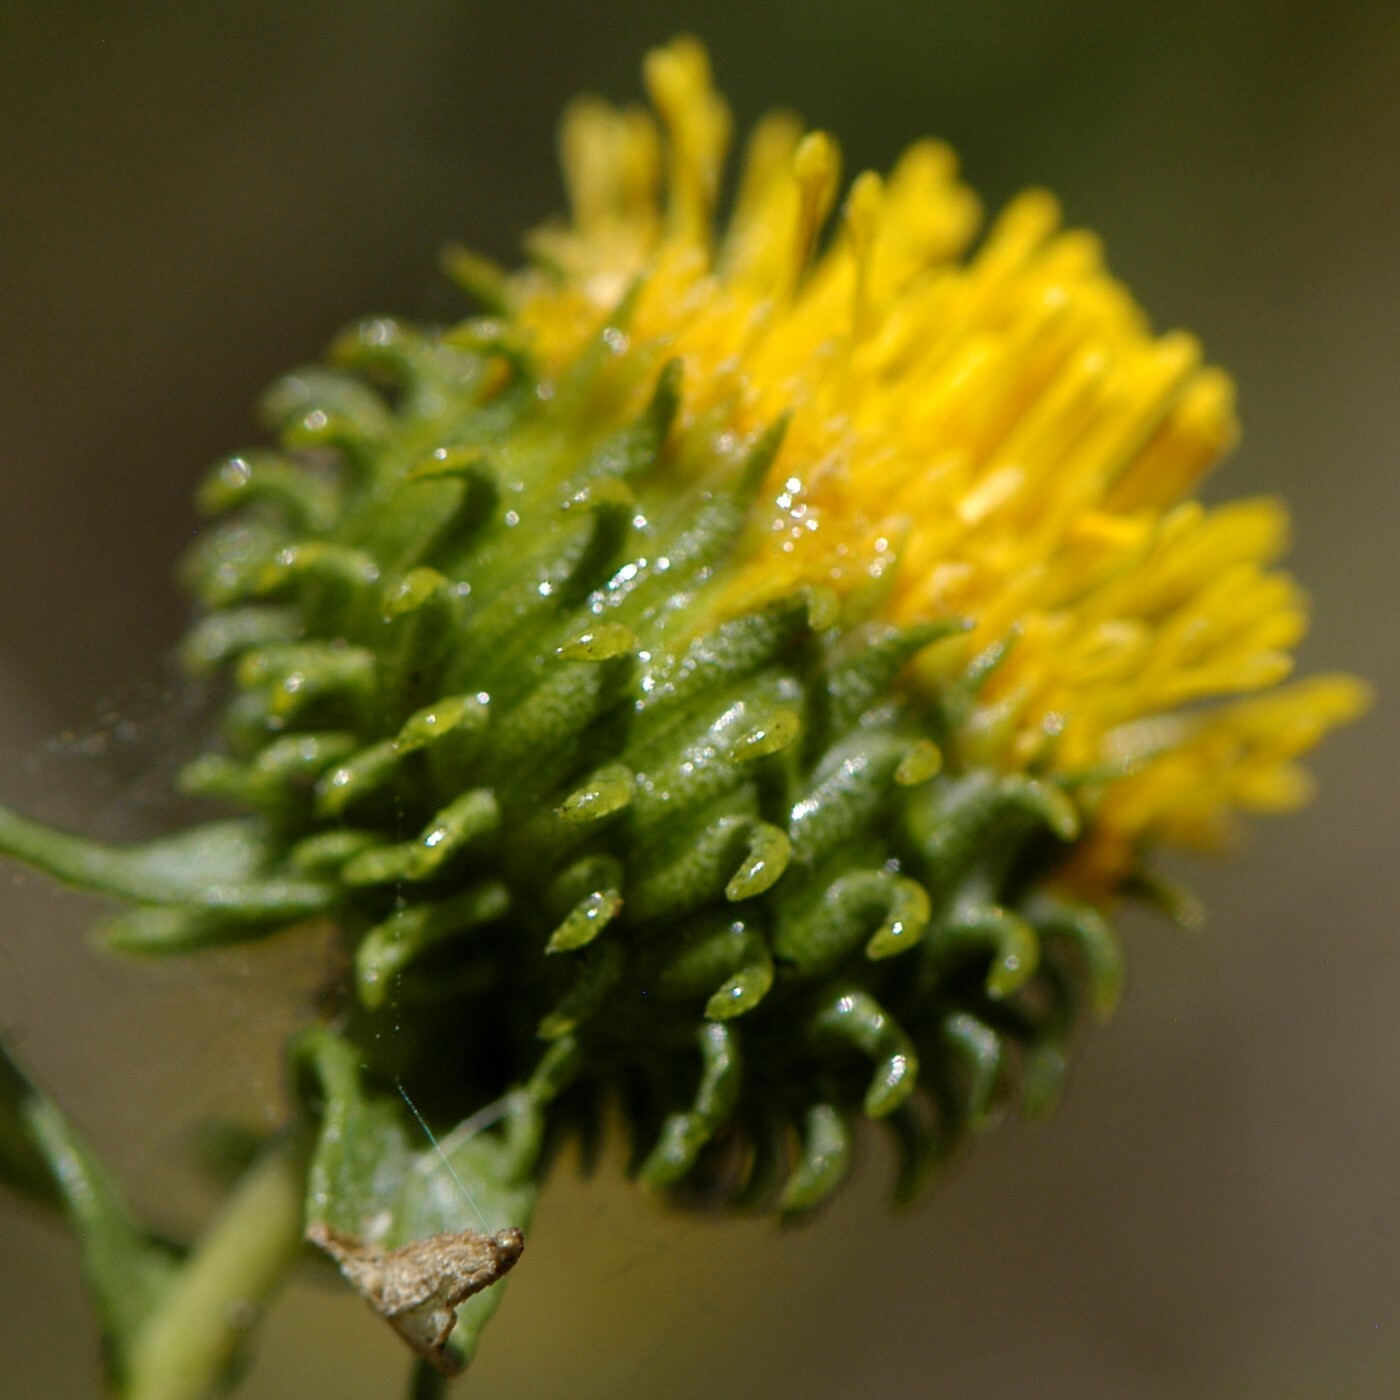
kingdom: Plantae
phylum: Tracheophyta
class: Magnoliopsida
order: Asterales
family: Asteraceae
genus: Grindelia
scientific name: Grindelia nuda
